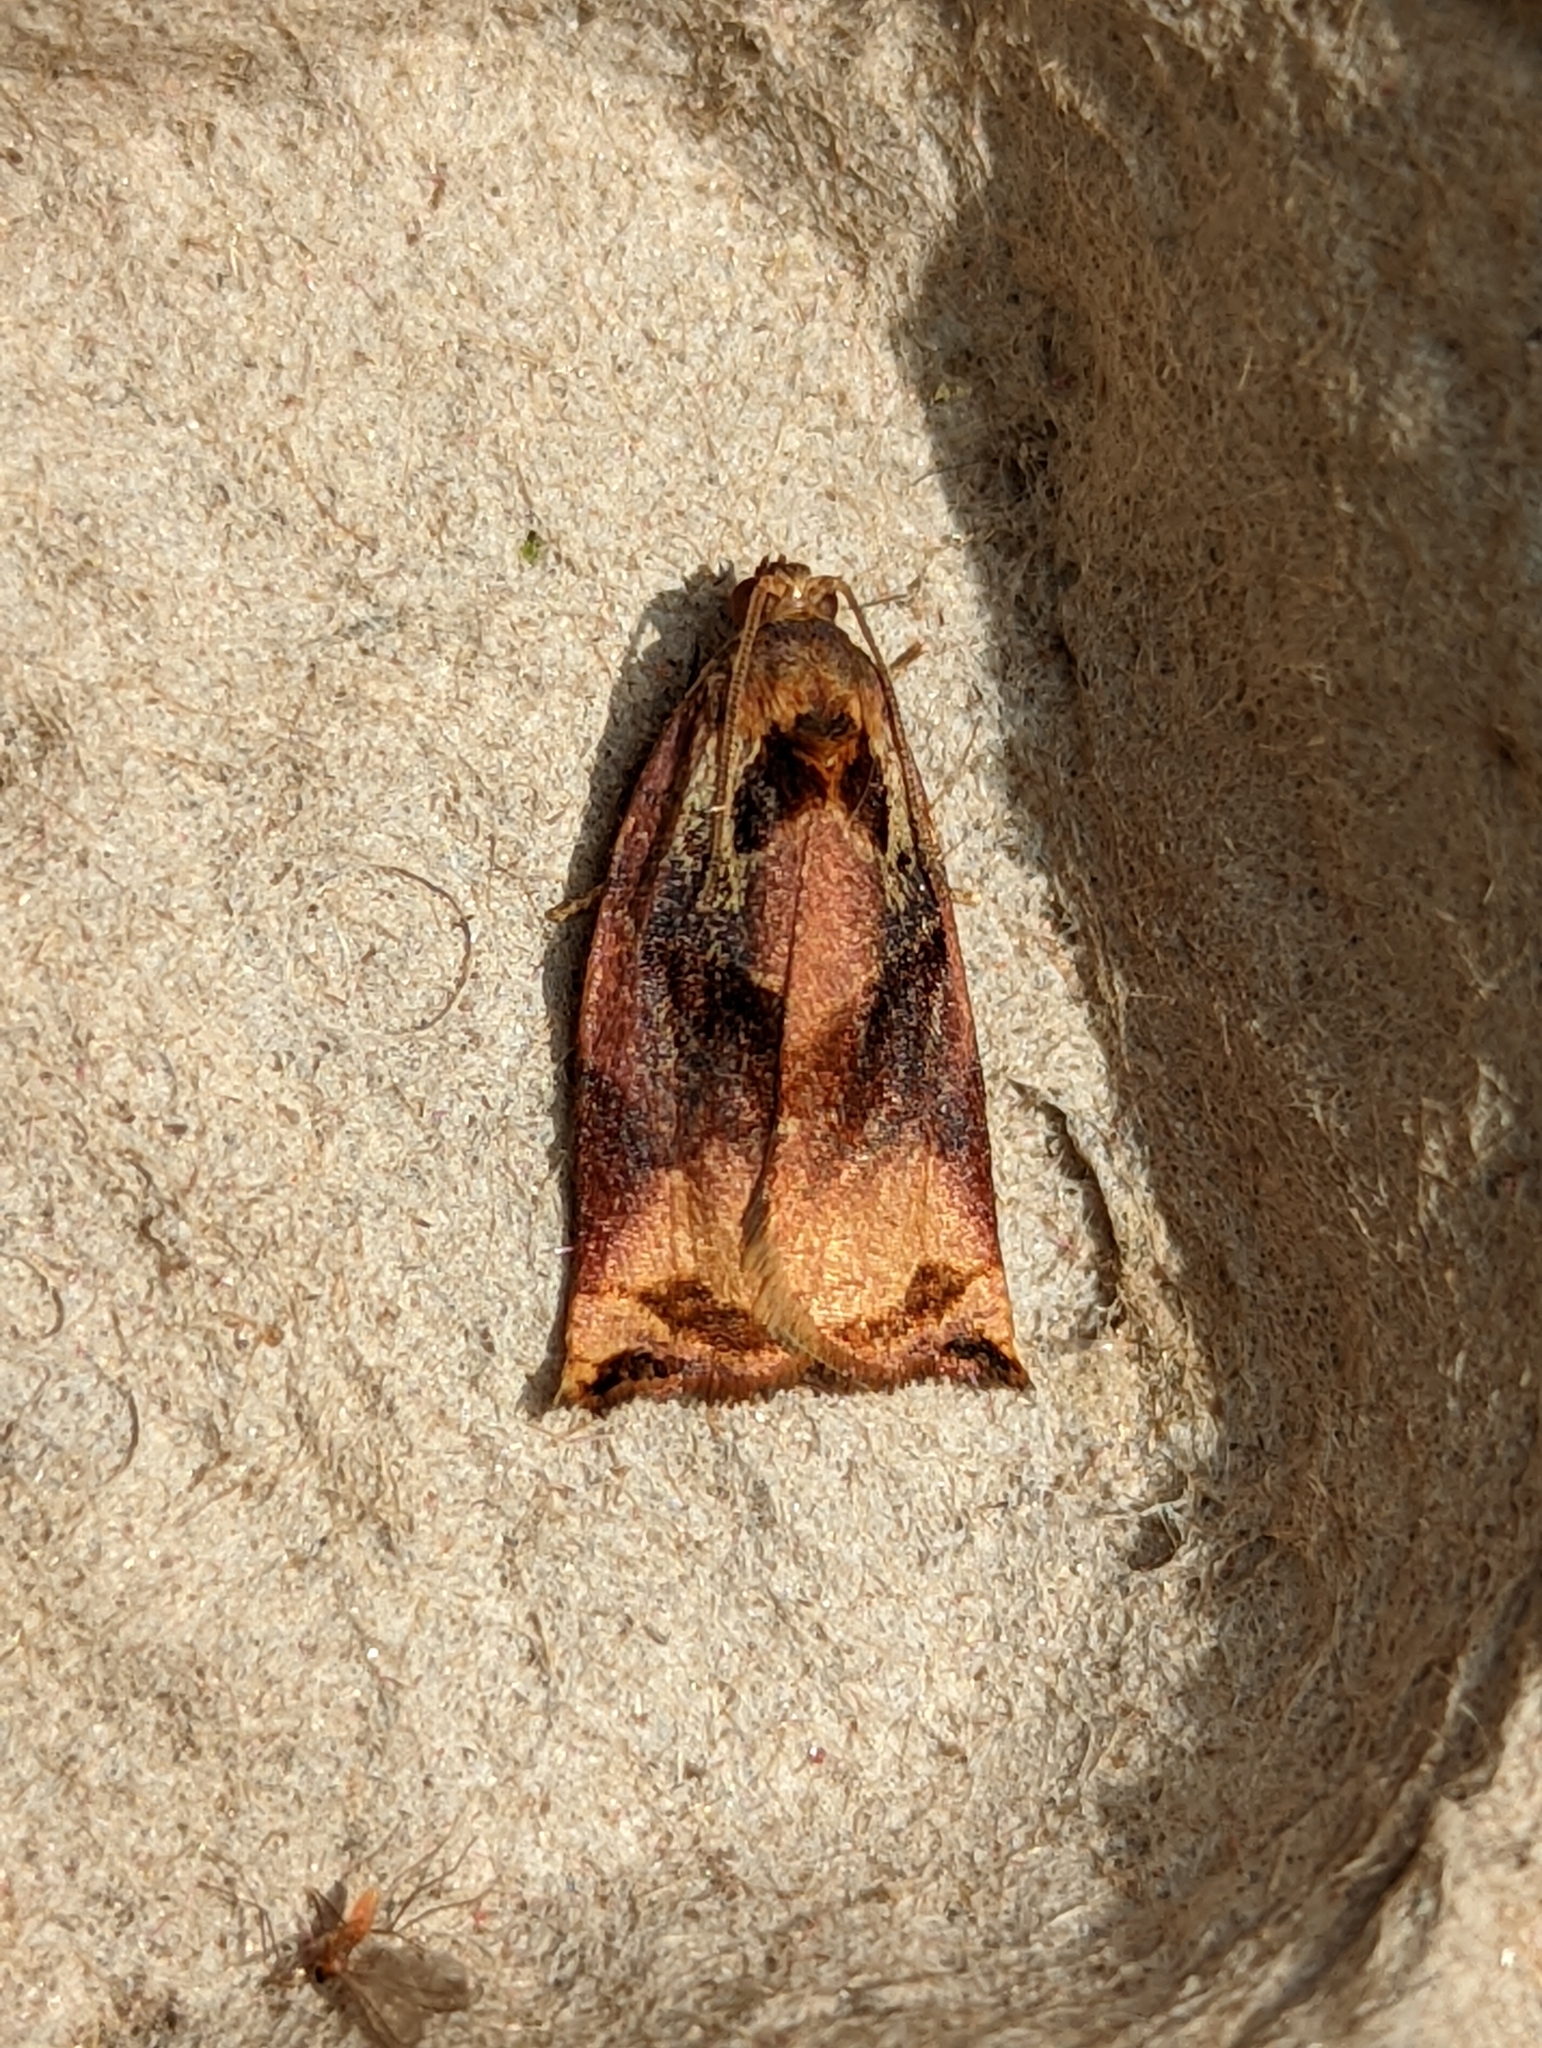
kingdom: Animalia
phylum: Arthropoda
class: Insecta
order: Lepidoptera
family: Tortricidae
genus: Archips
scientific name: Archips podana
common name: Large fruit-tree tortrix
